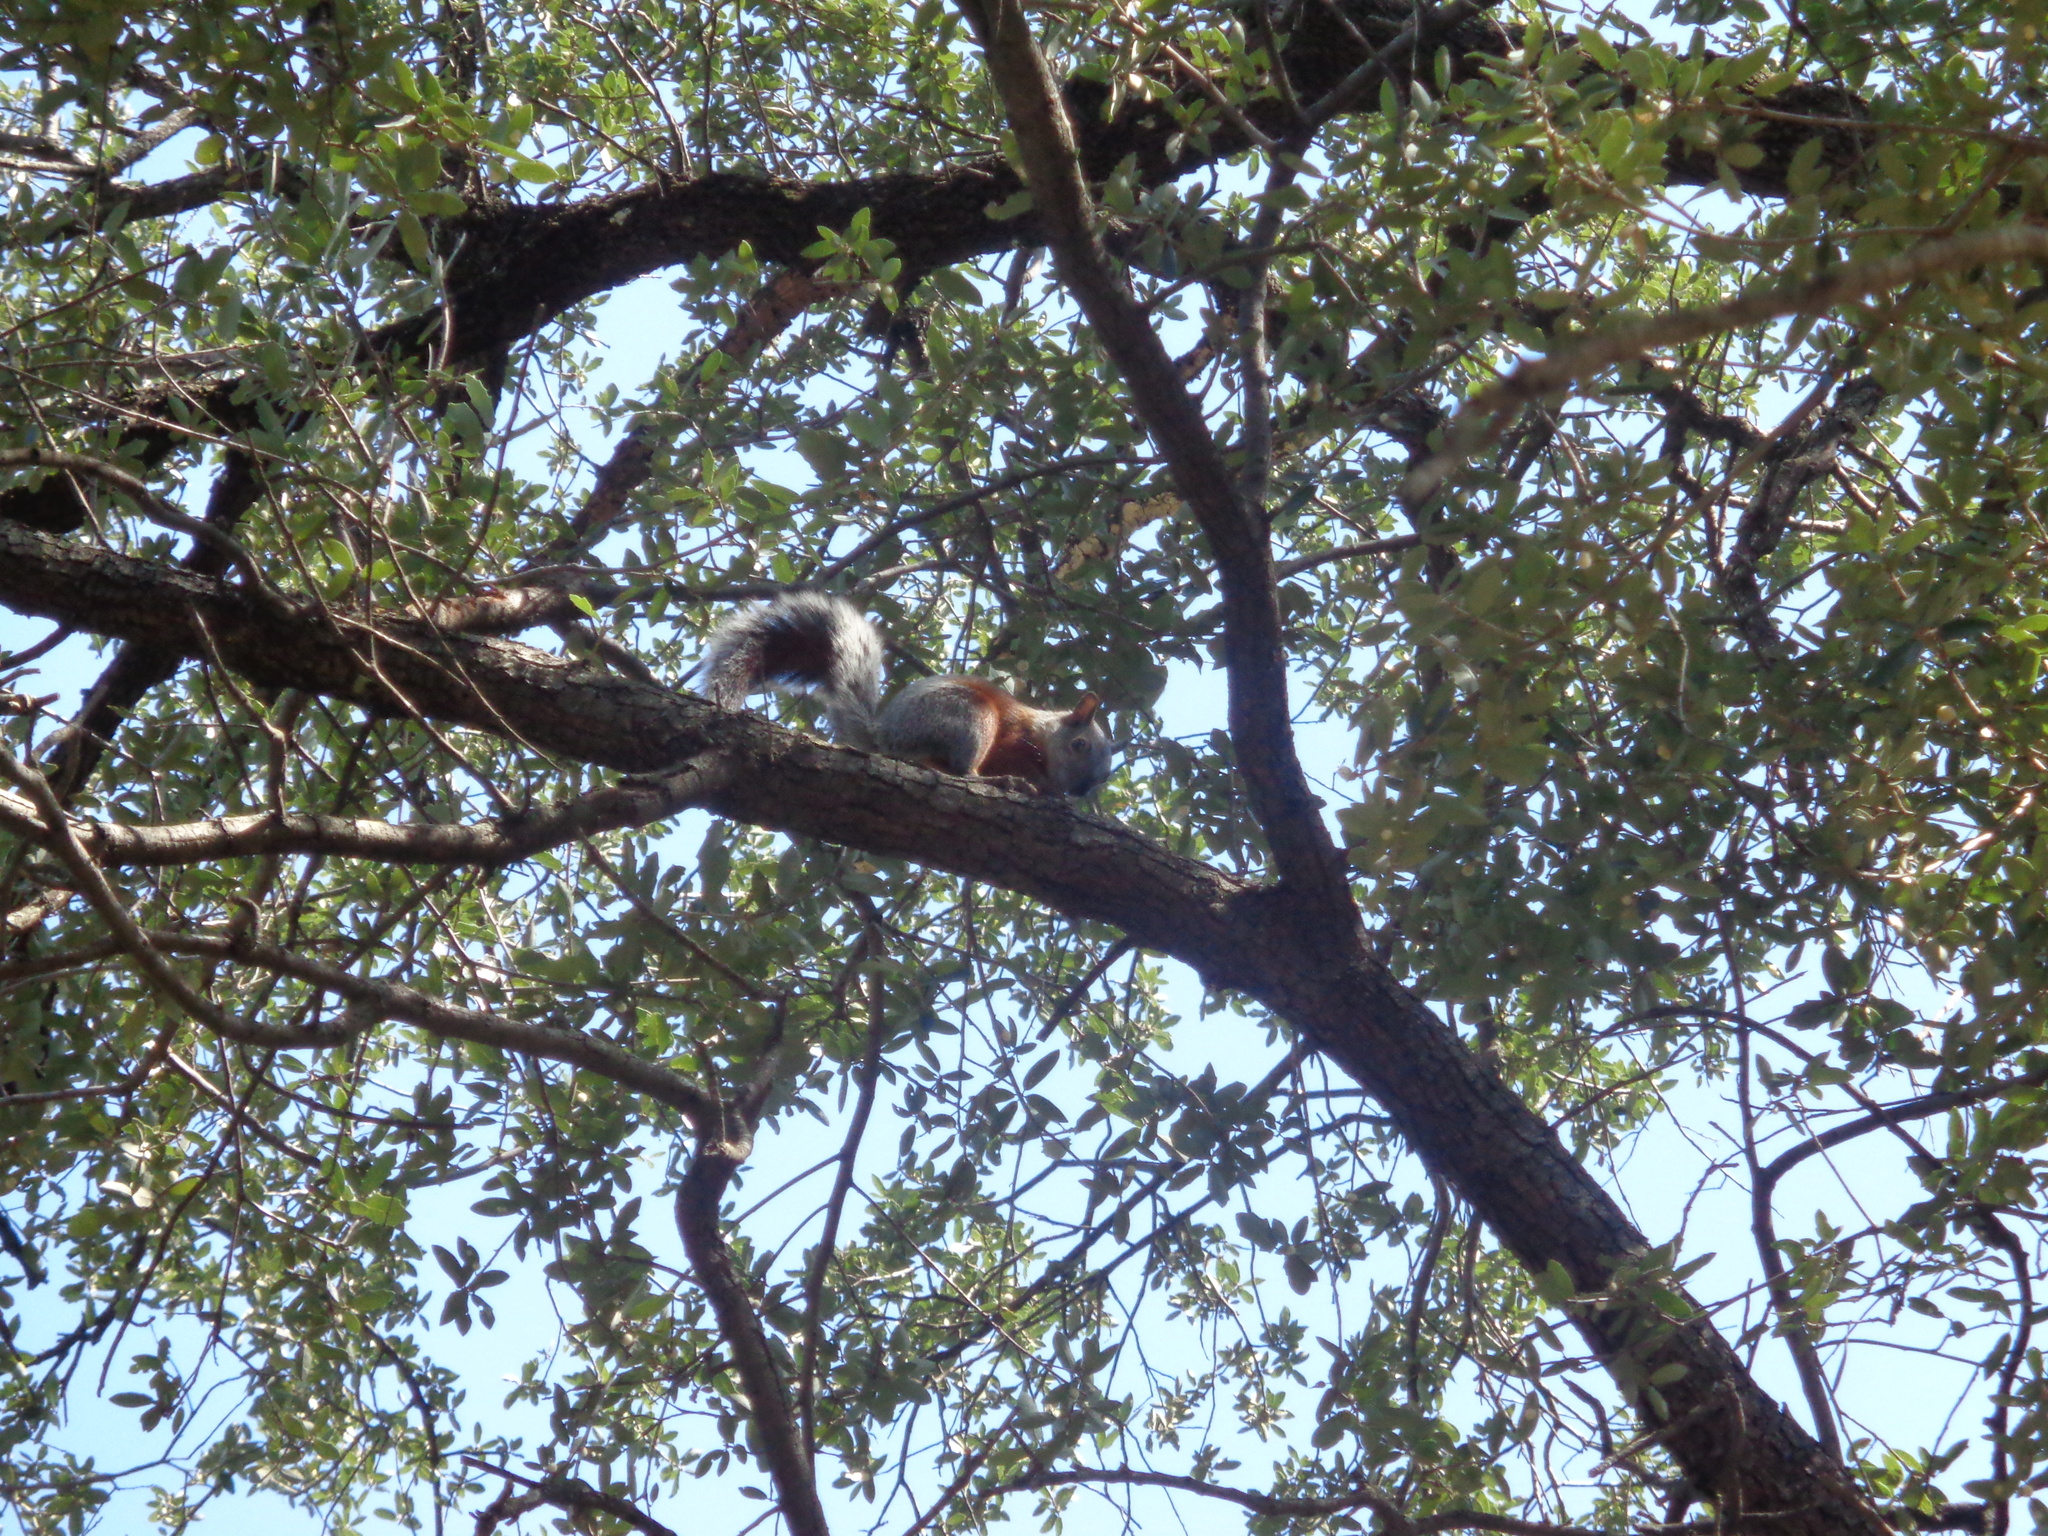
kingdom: Animalia
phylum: Chordata
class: Mammalia
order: Rodentia
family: Sciuridae
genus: Sciurus
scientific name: Sciurus aureogaster
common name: Red-bellied squirrel
